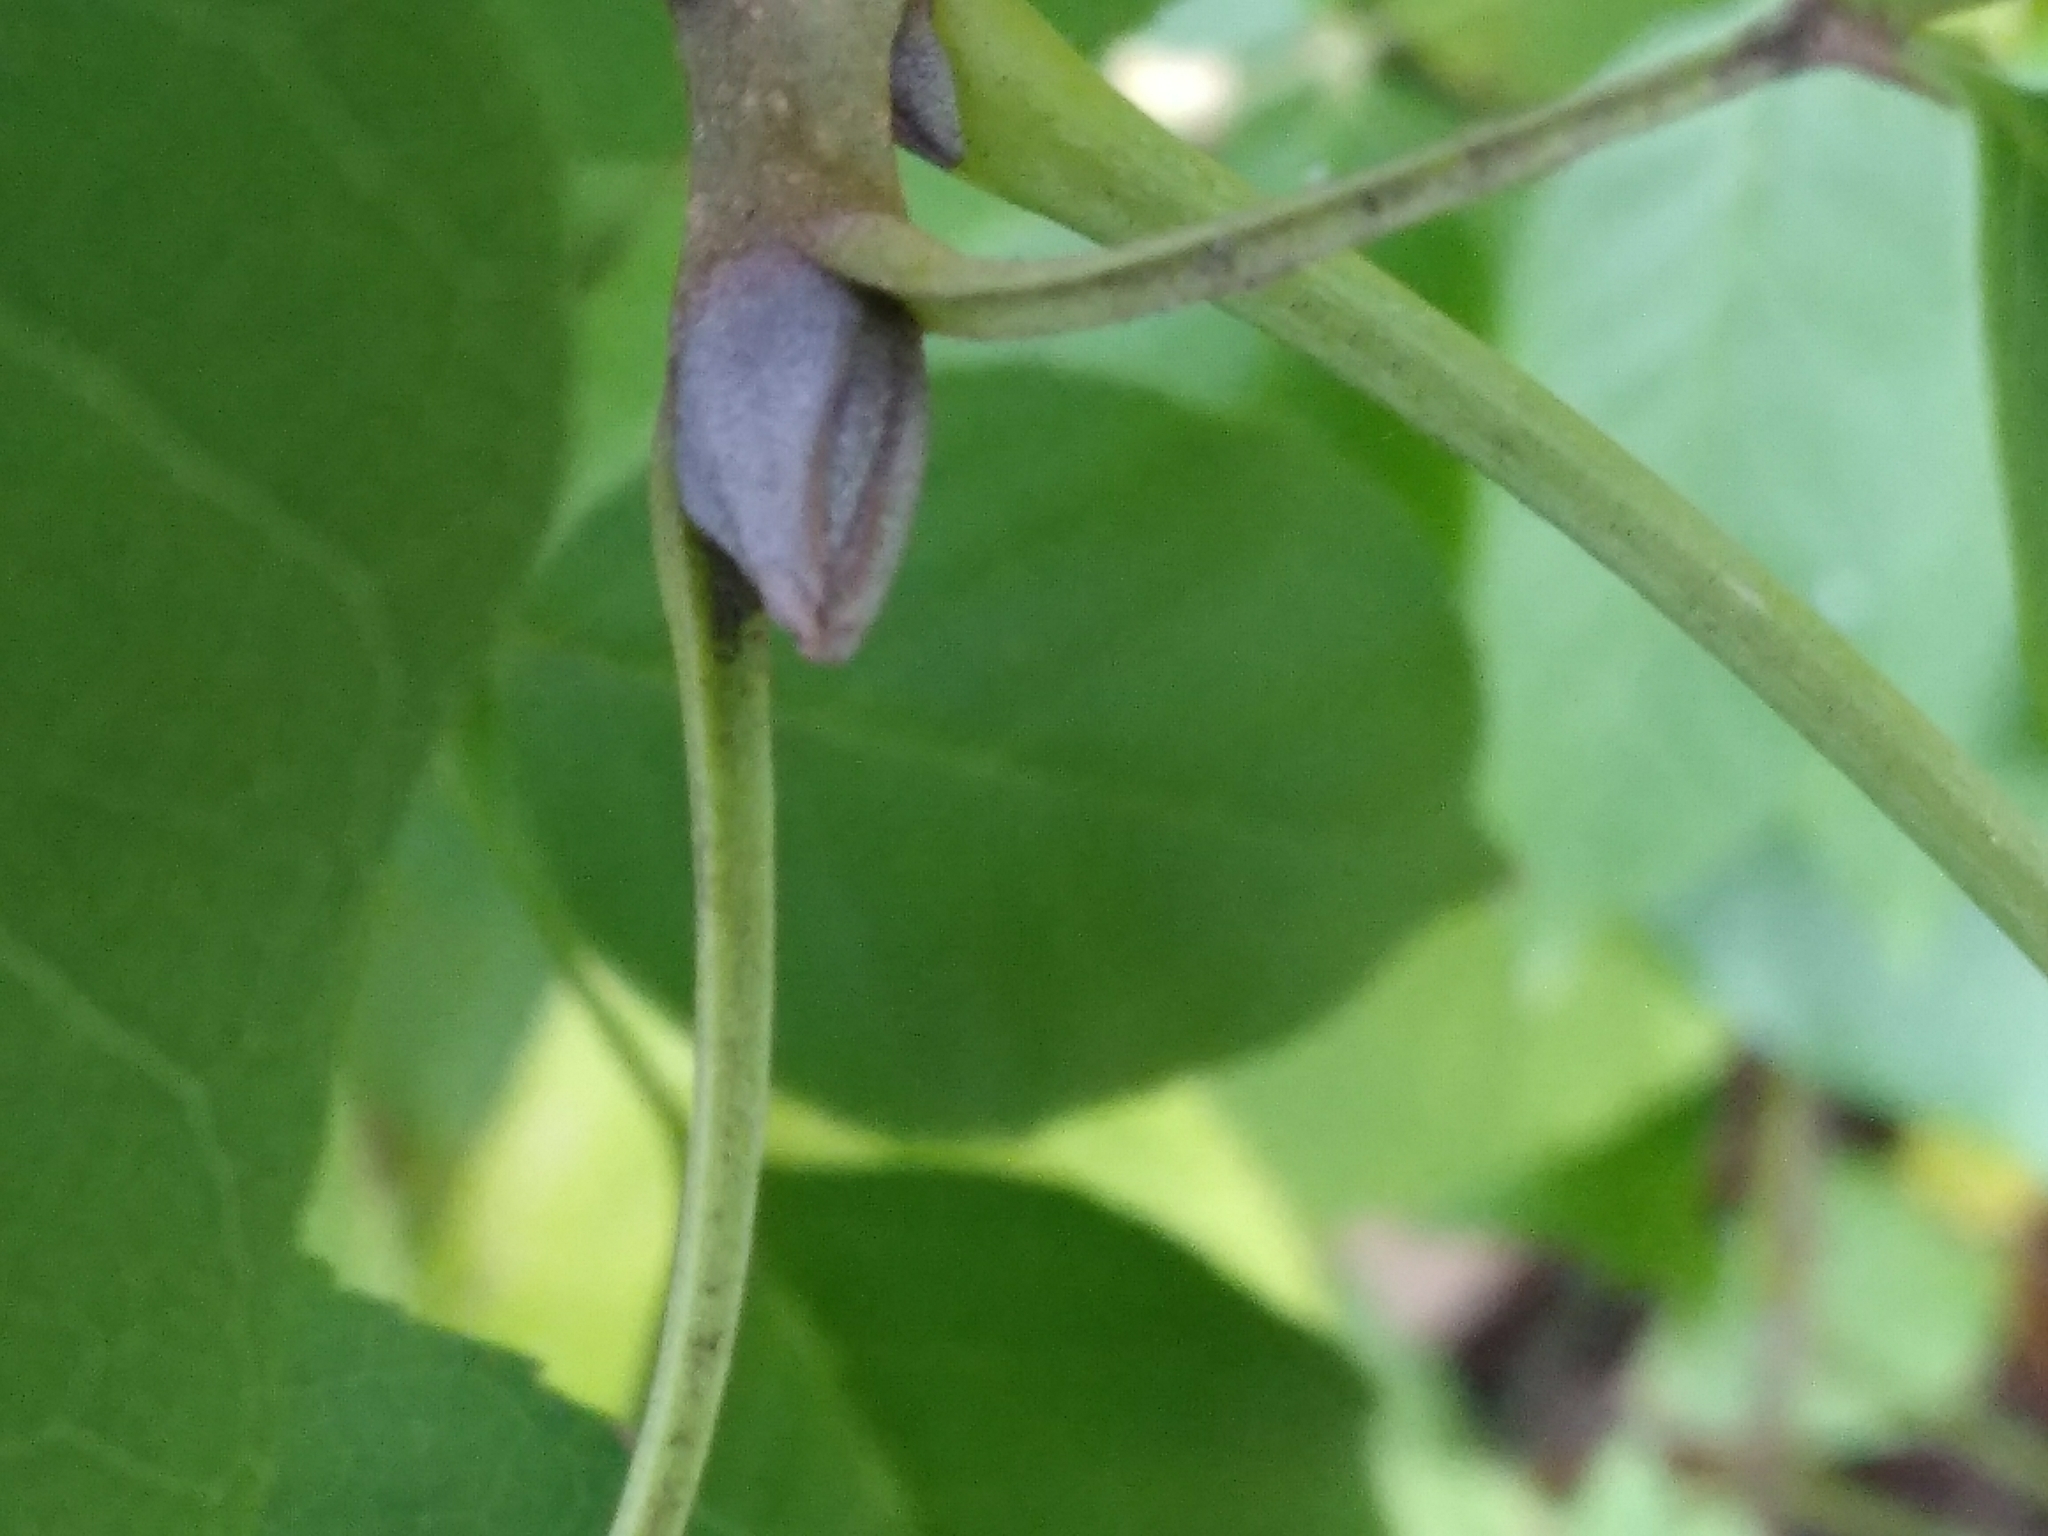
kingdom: Plantae
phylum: Tracheophyta
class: Magnoliopsida
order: Lamiales
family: Oleaceae
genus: Fraxinus
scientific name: Fraxinus ornus
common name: Manna ash
